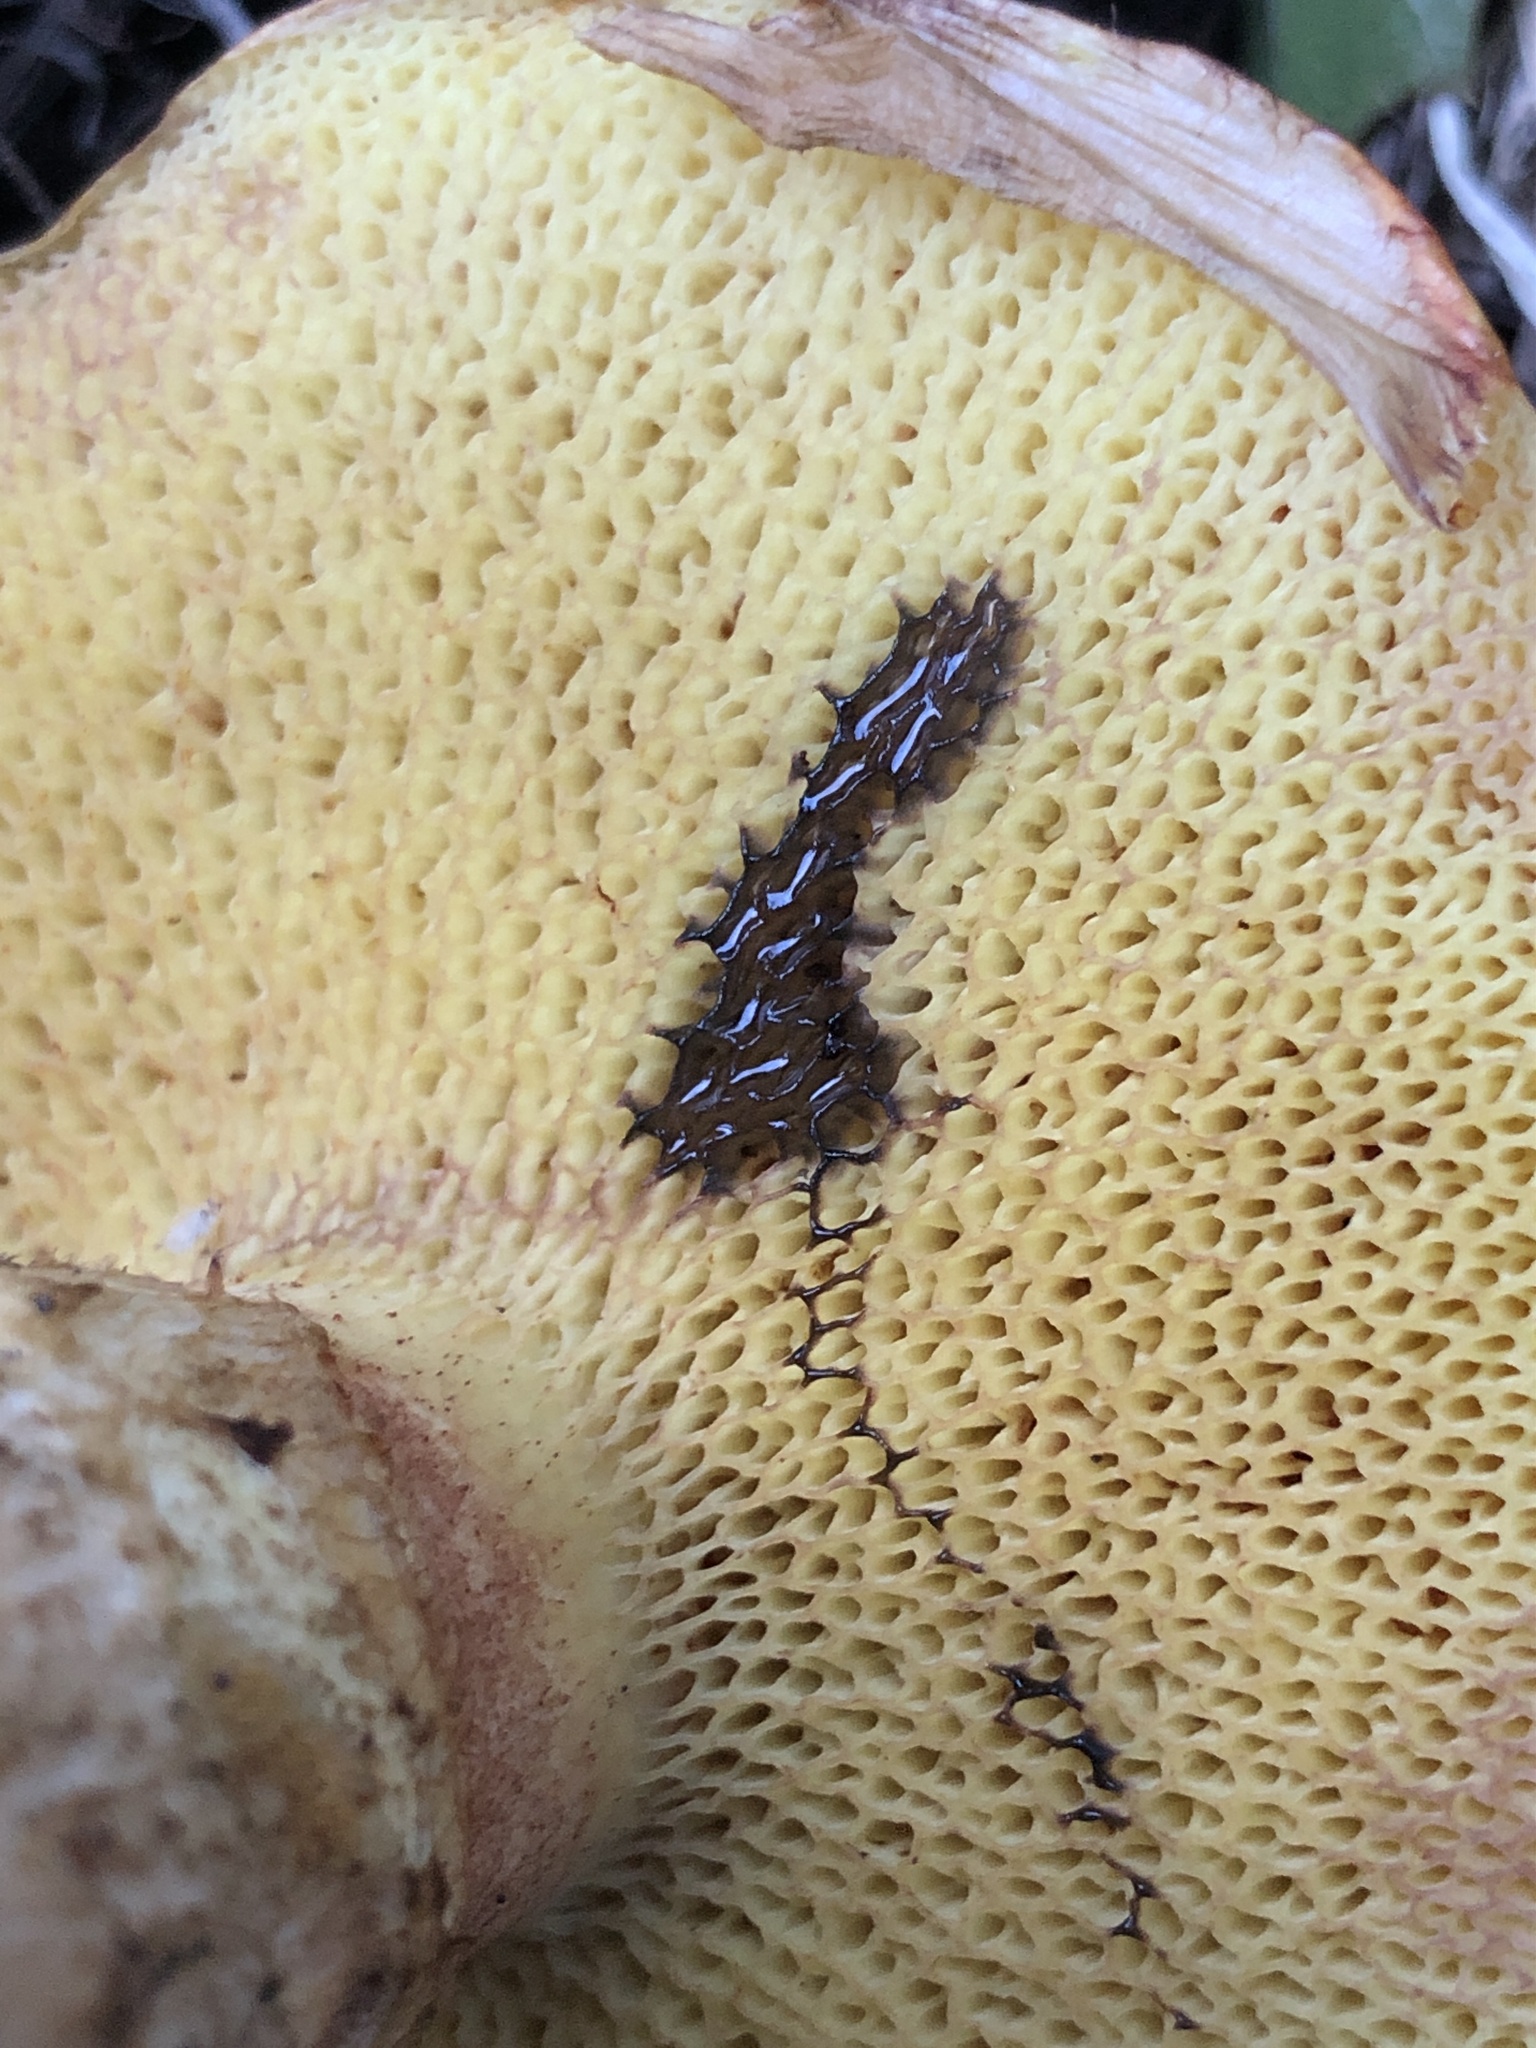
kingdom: Fungi
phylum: Basidiomycota
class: Agaricomycetes
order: Boletales
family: Suillaceae
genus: Suillus
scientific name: Suillus lakei
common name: Western painted suillus
